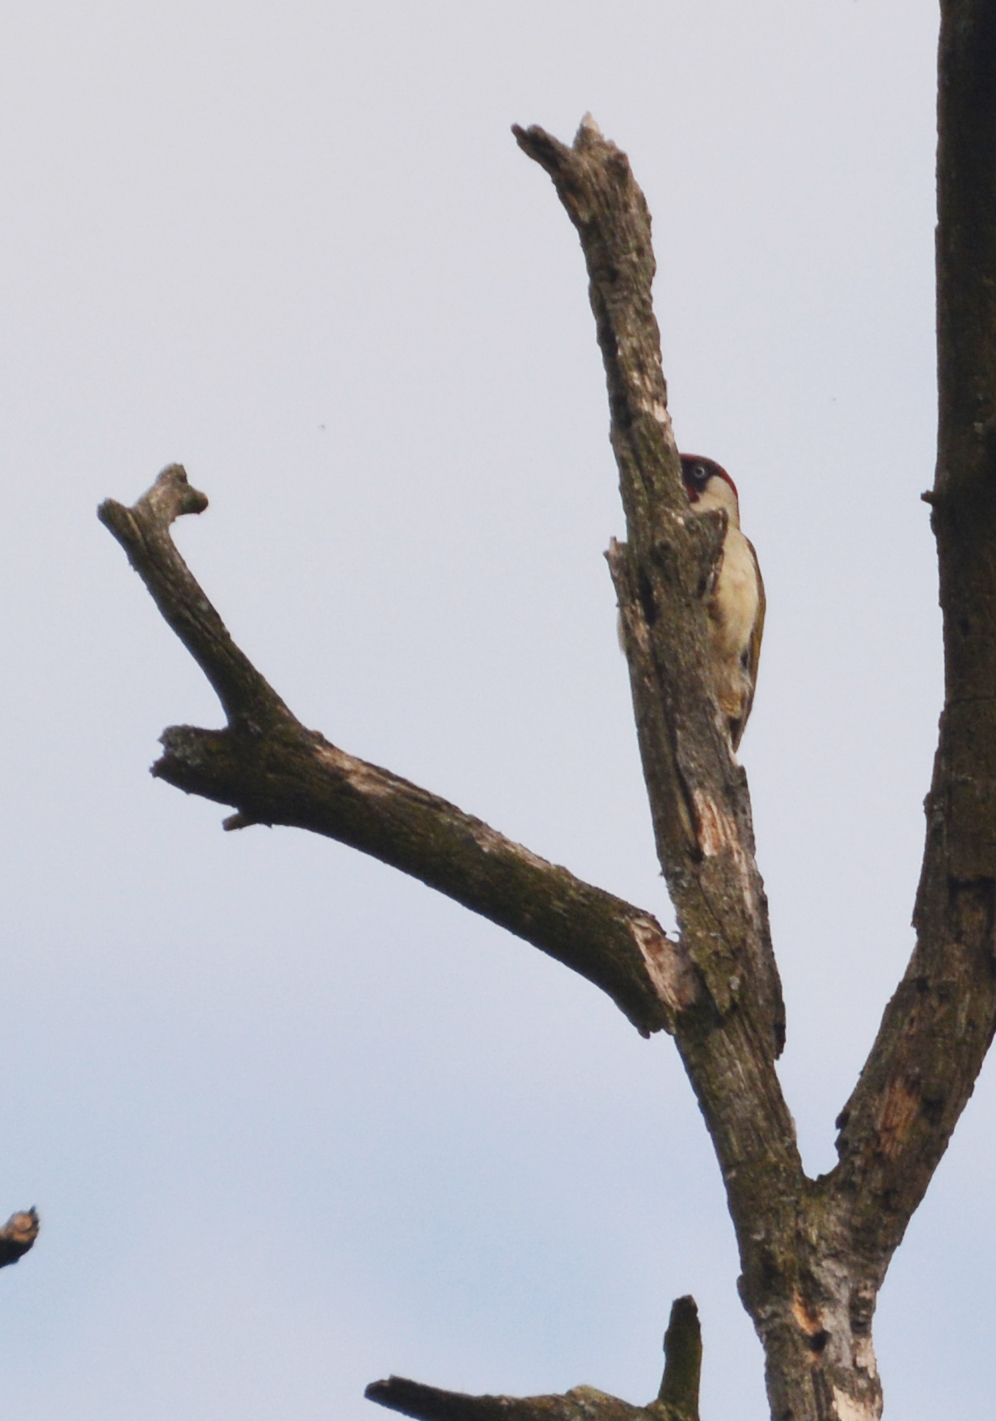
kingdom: Animalia
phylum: Chordata
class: Aves
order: Piciformes
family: Picidae
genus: Picus
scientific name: Picus viridis
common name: European green woodpecker
